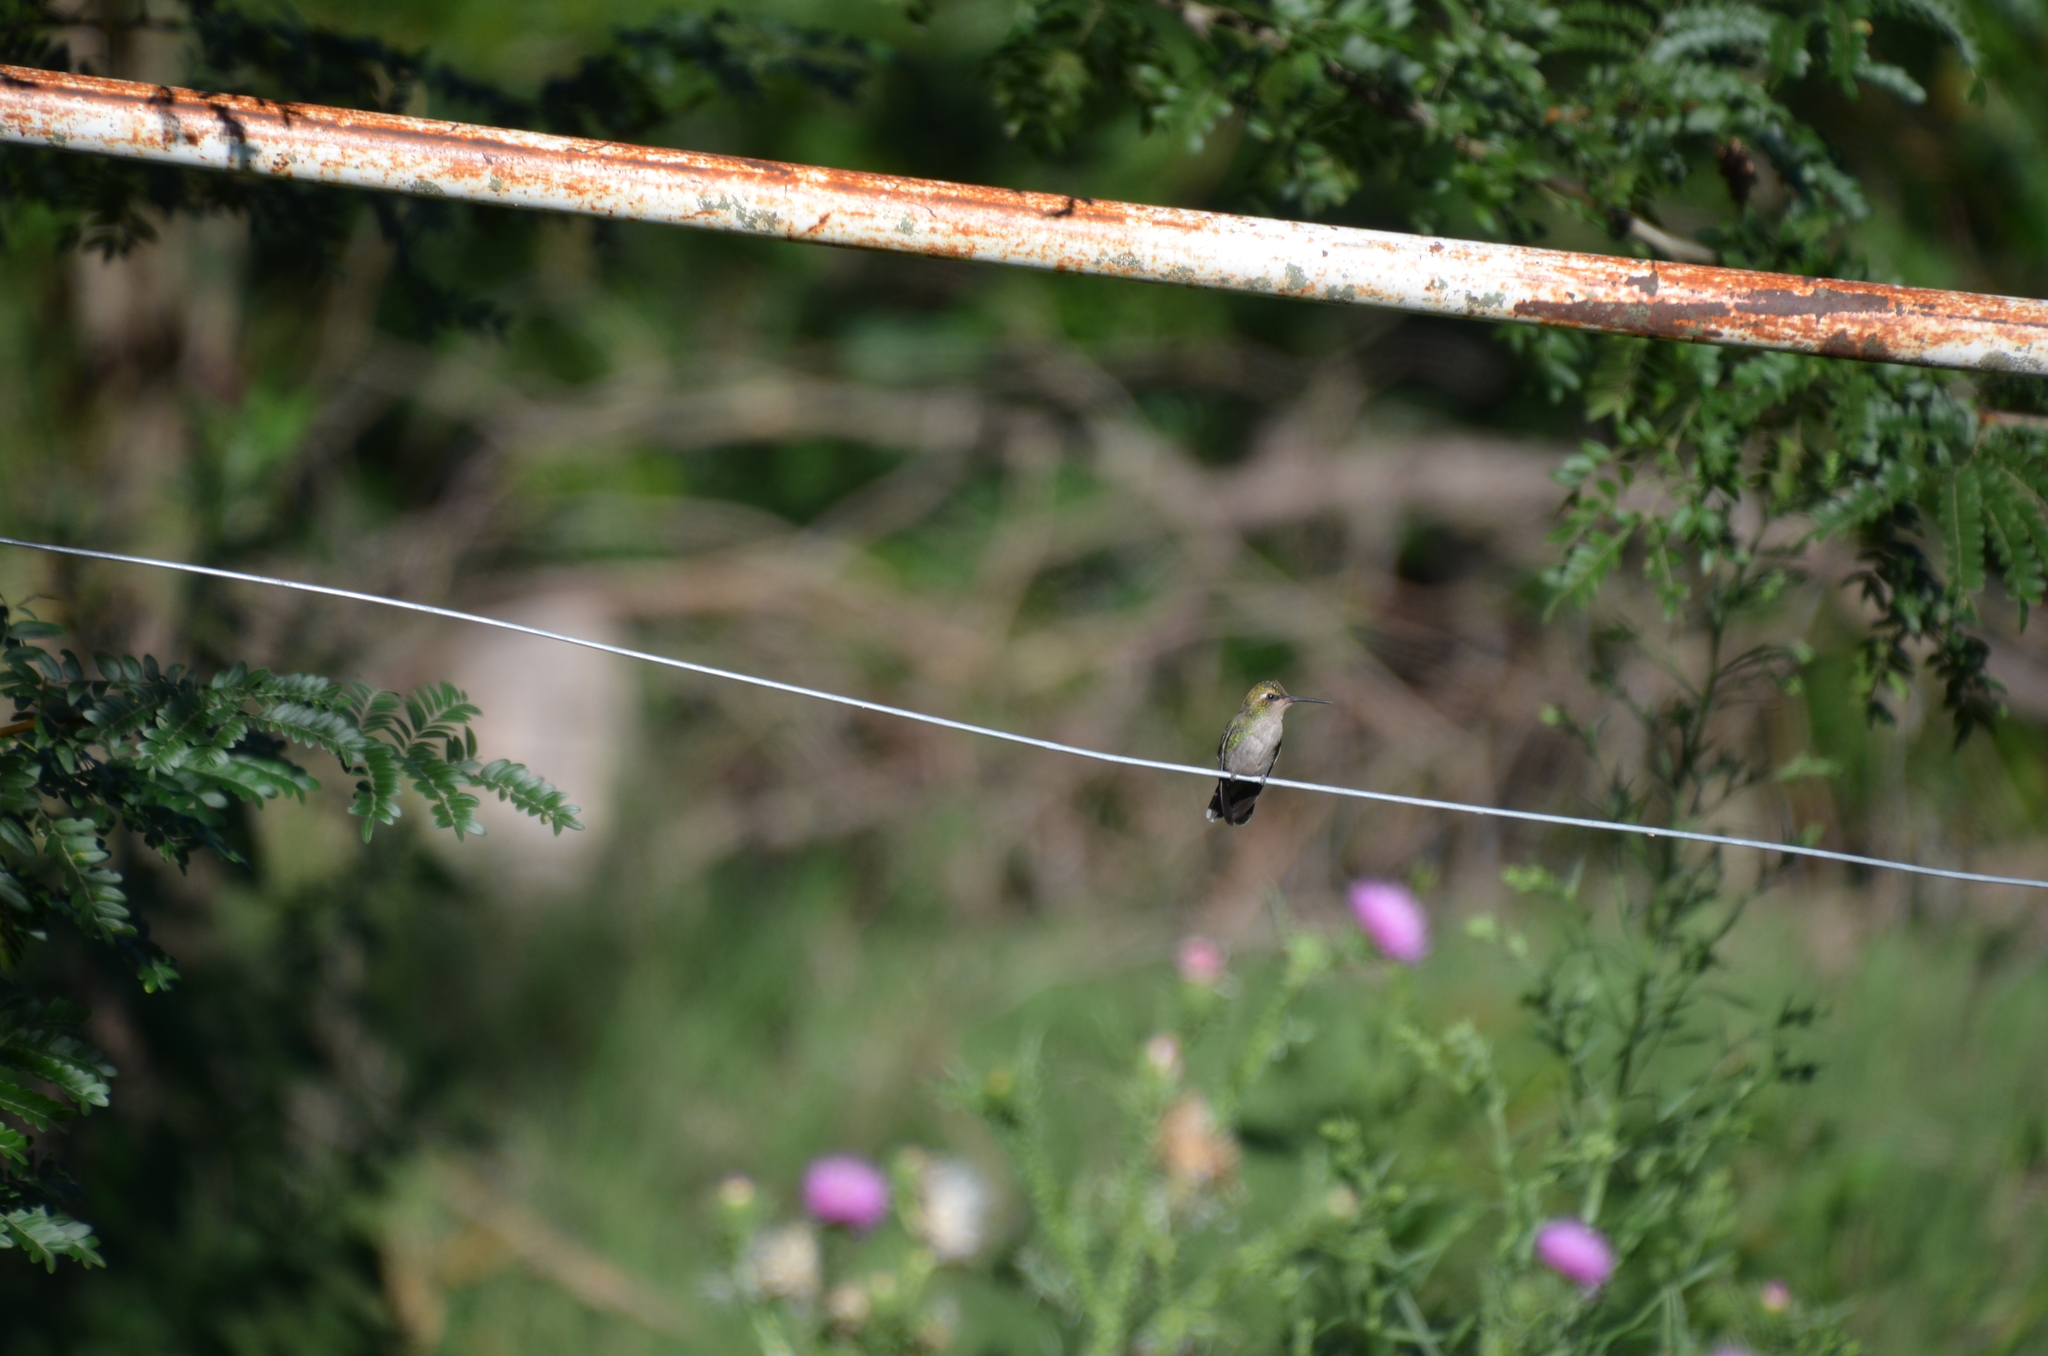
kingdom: Animalia
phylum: Chordata
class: Aves
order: Apodiformes
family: Trochilidae
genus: Chlorostilbon
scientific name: Chlorostilbon lucidus
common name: Glittering-bellied emerald
